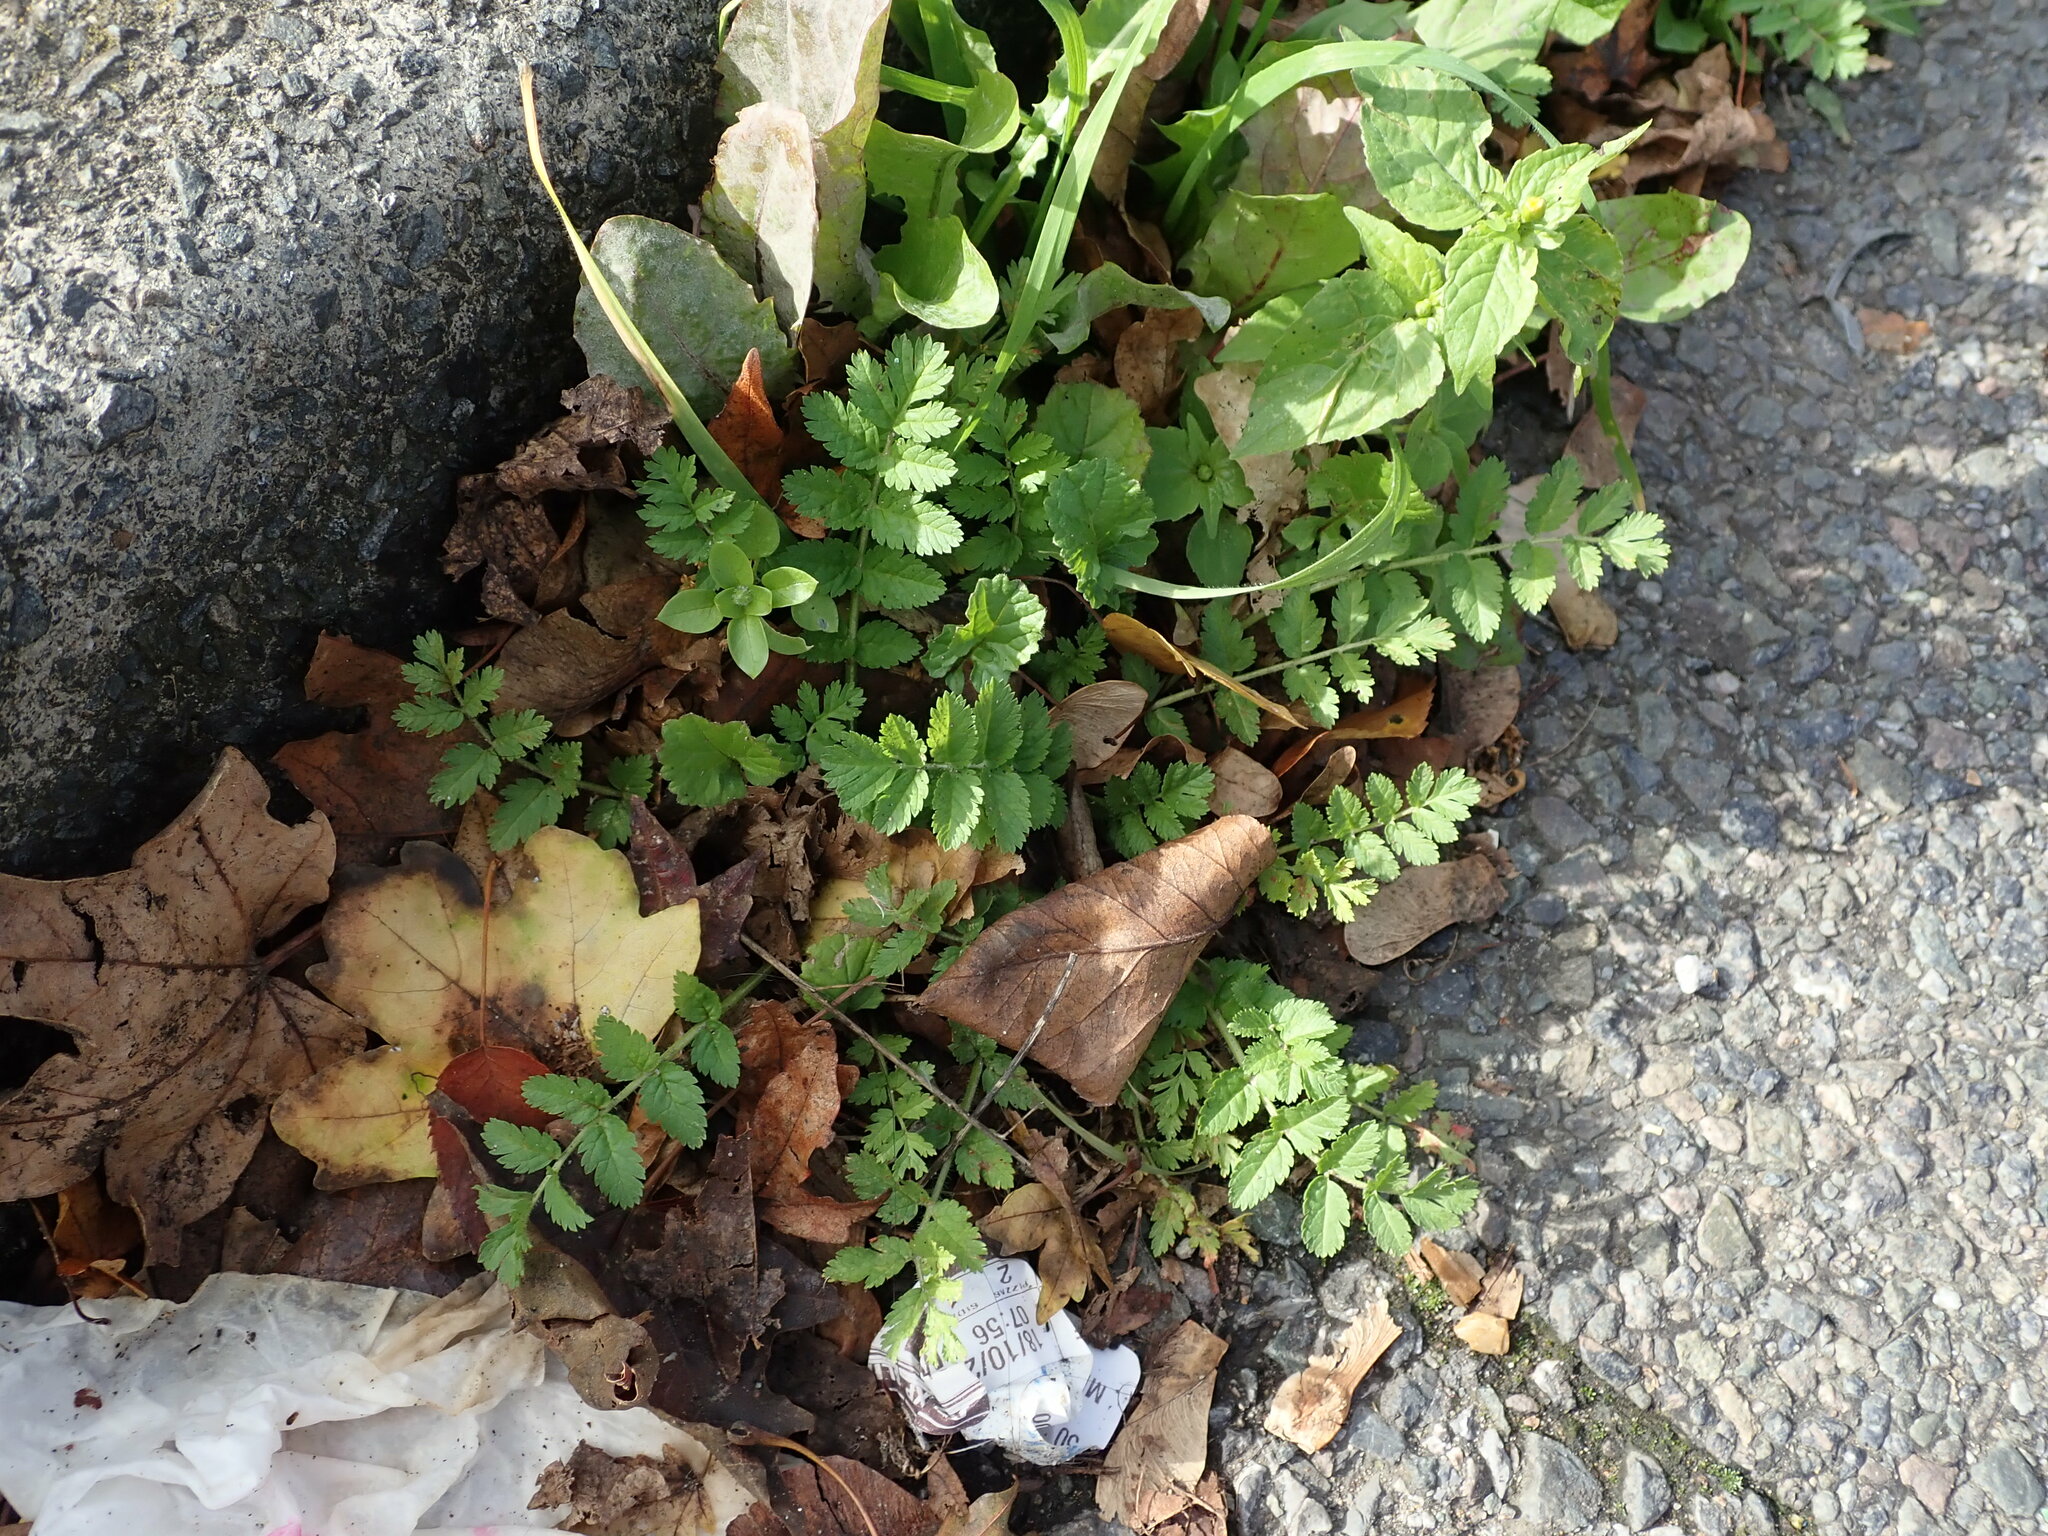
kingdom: Plantae
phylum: Tracheophyta
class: Magnoliopsida
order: Geraniales
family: Geraniaceae
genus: Erodium
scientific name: Erodium moschatum
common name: Musk stork's-bill
